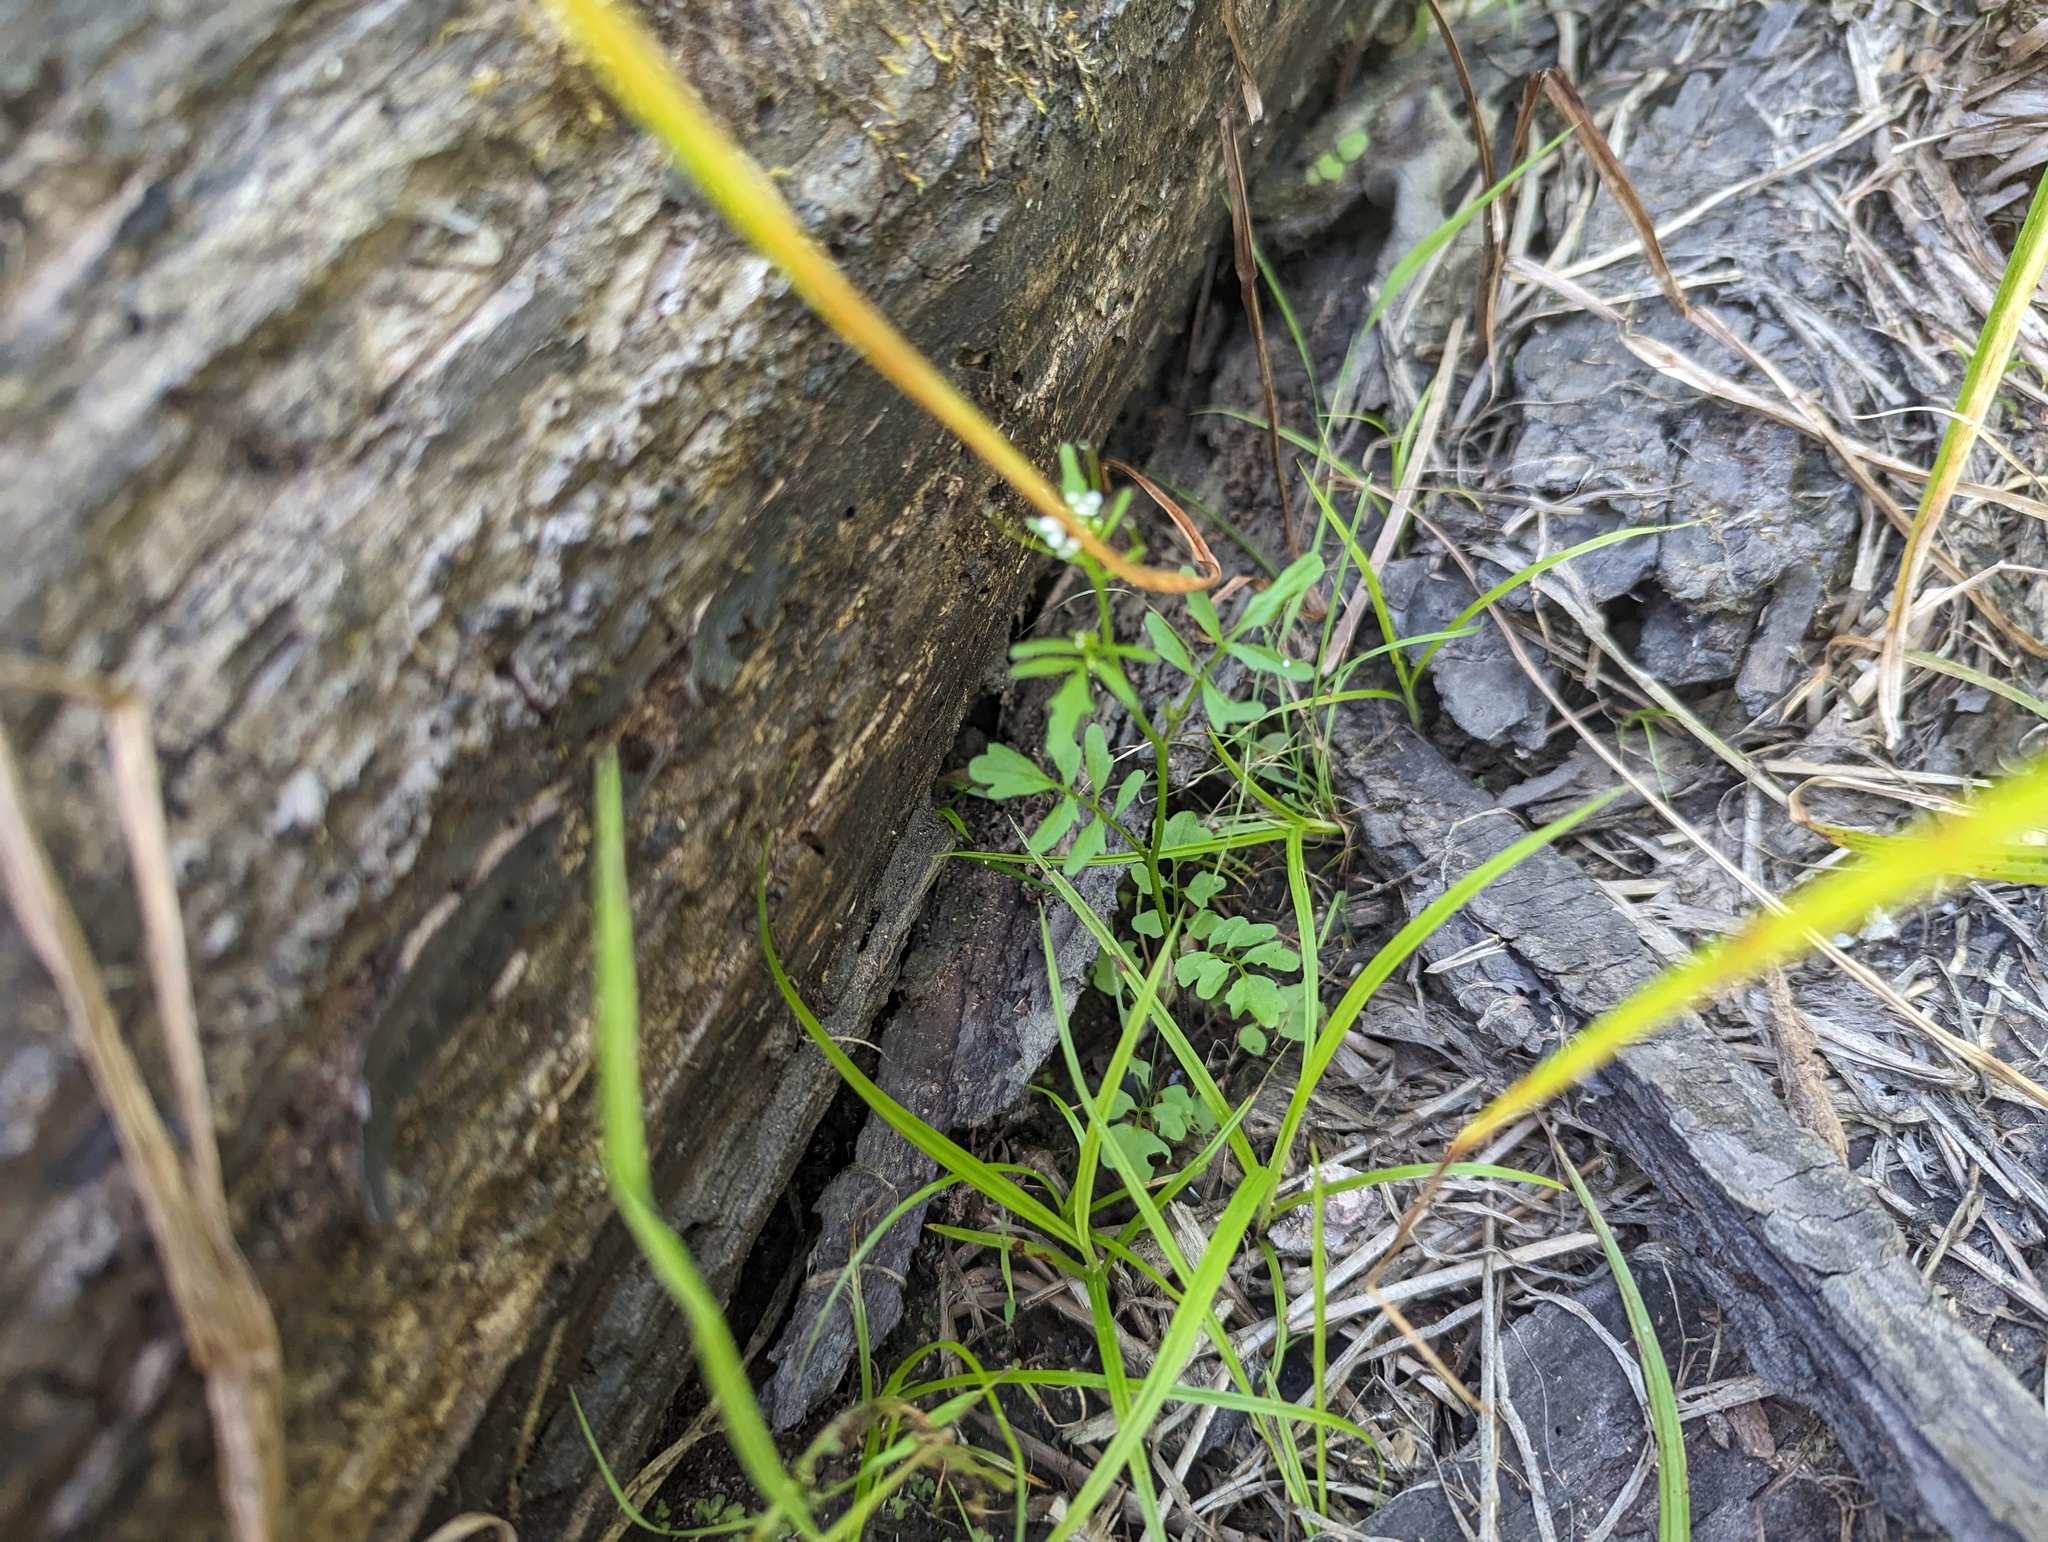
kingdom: Plantae
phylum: Tracheophyta
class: Magnoliopsida
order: Brassicales
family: Brassicaceae
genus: Cardamine
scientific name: Cardamine pensylvanica
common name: Pennsylvania bittercress
